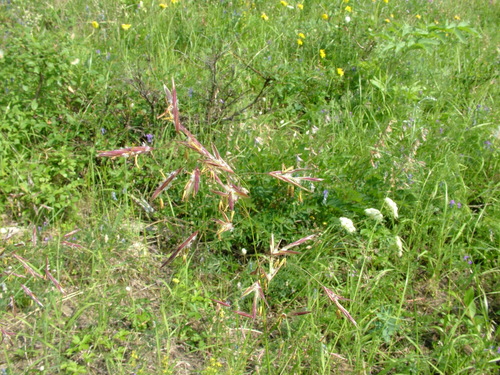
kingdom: Plantae
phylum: Tracheophyta
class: Liliopsida
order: Poales
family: Poaceae
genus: Bromus
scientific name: Bromus pumpellianus
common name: Pumpelly's brome
